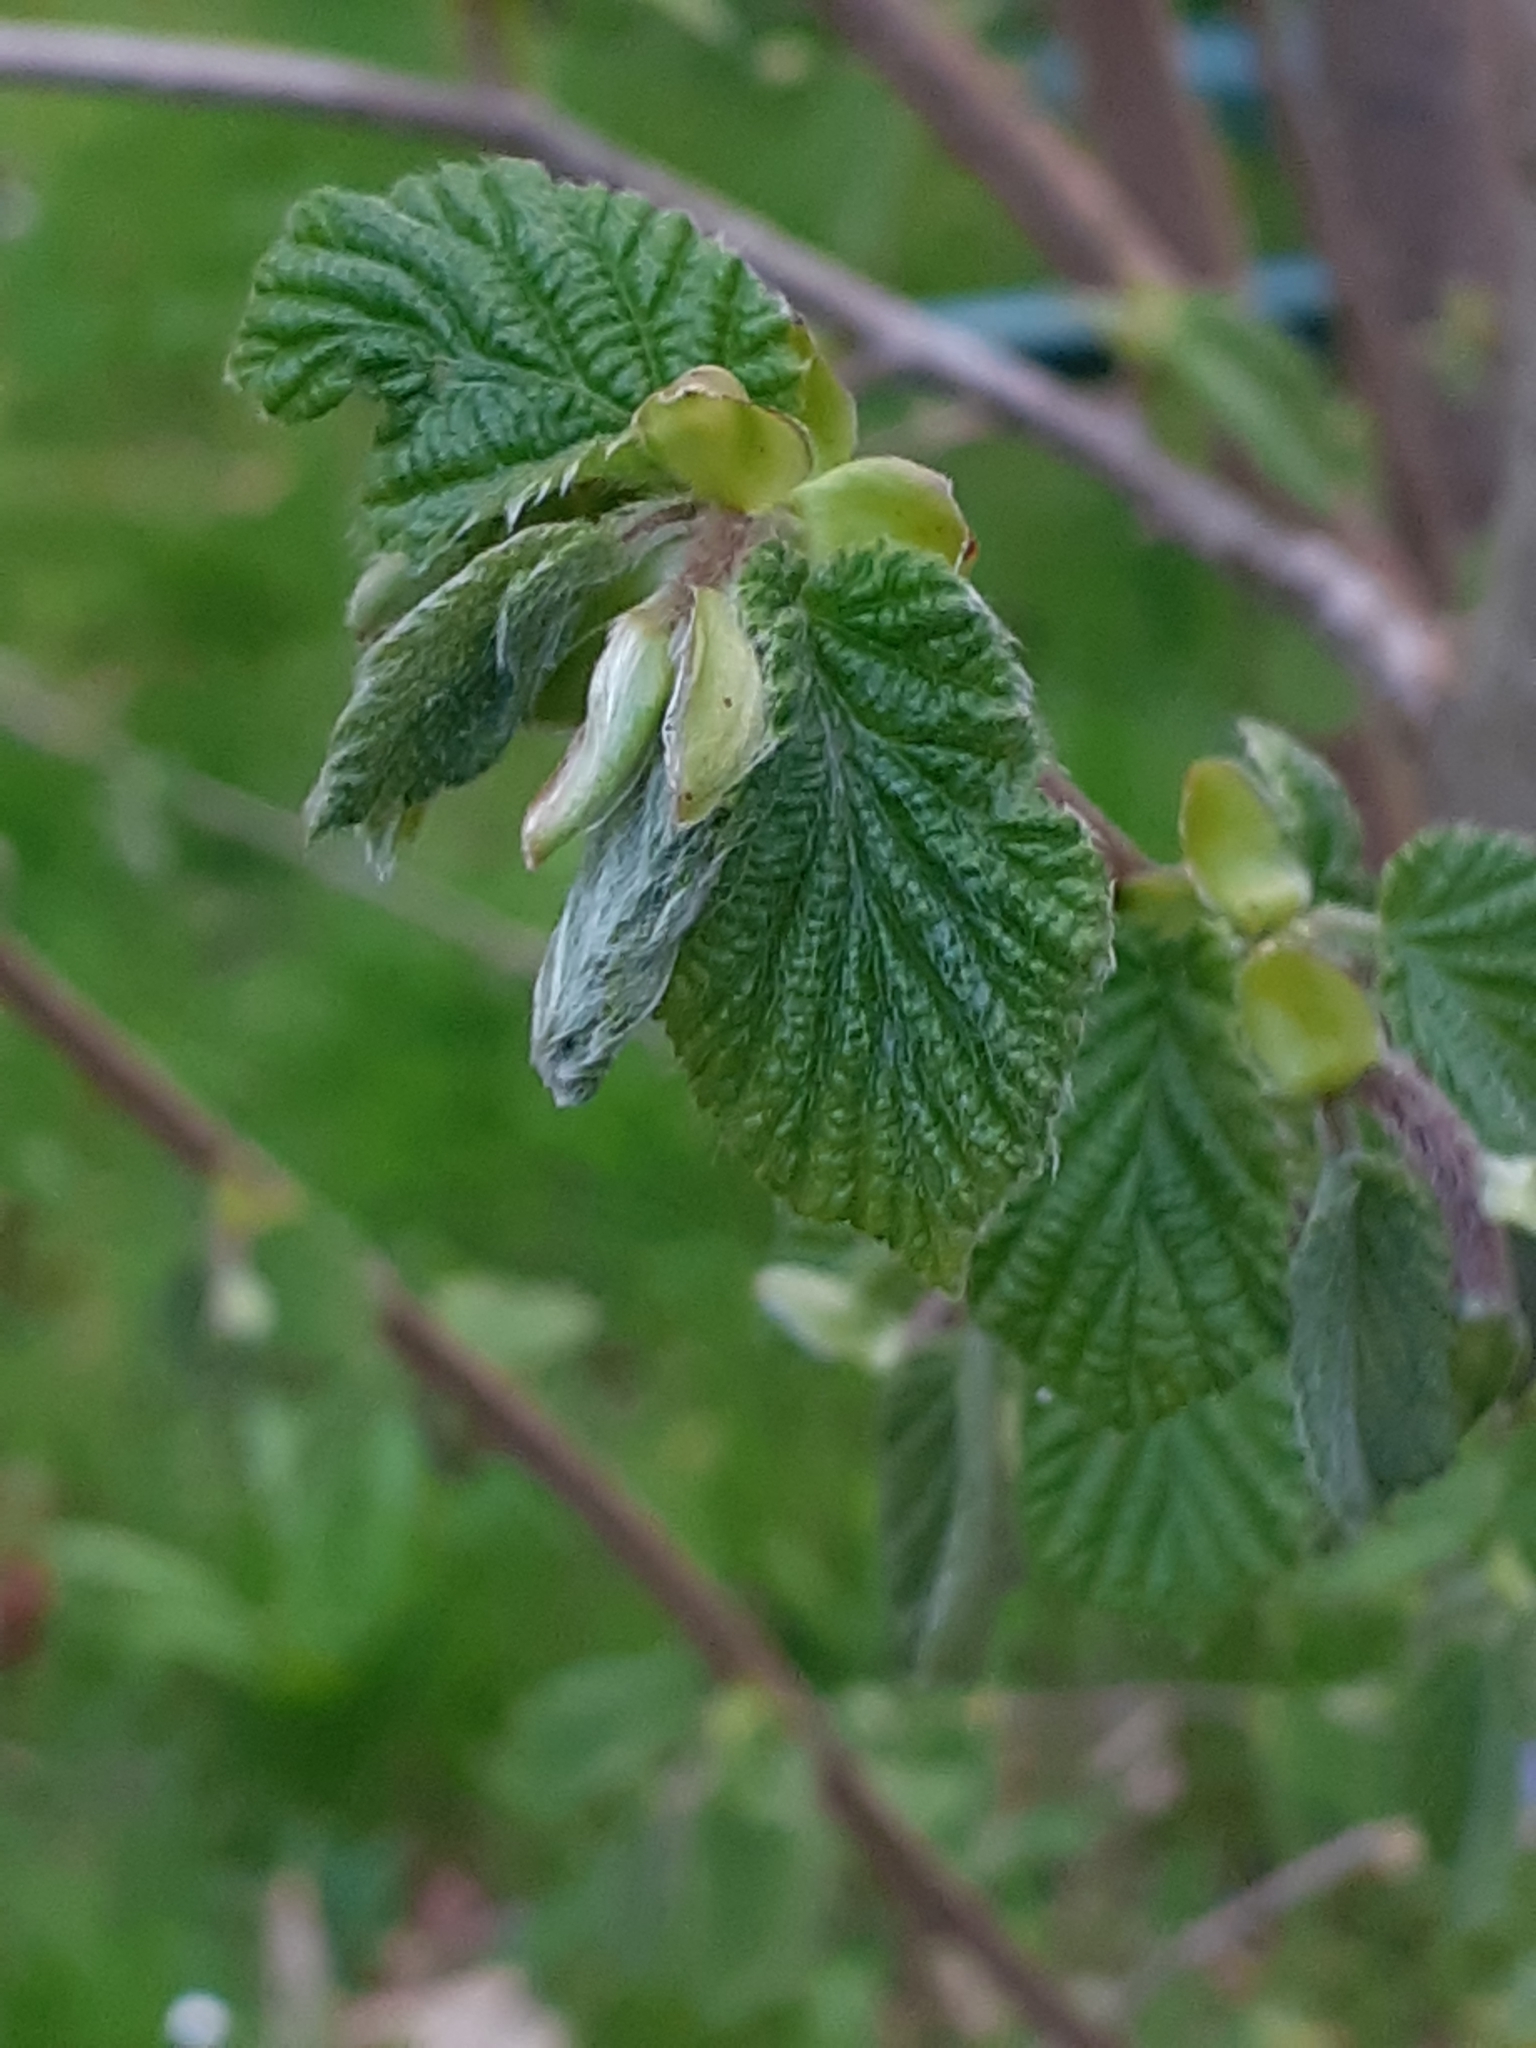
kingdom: Plantae
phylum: Tracheophyta
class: Magnoliopsida
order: Fagales
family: Betulaceae
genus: Corylus
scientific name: Corylus avellana
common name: European hazel
